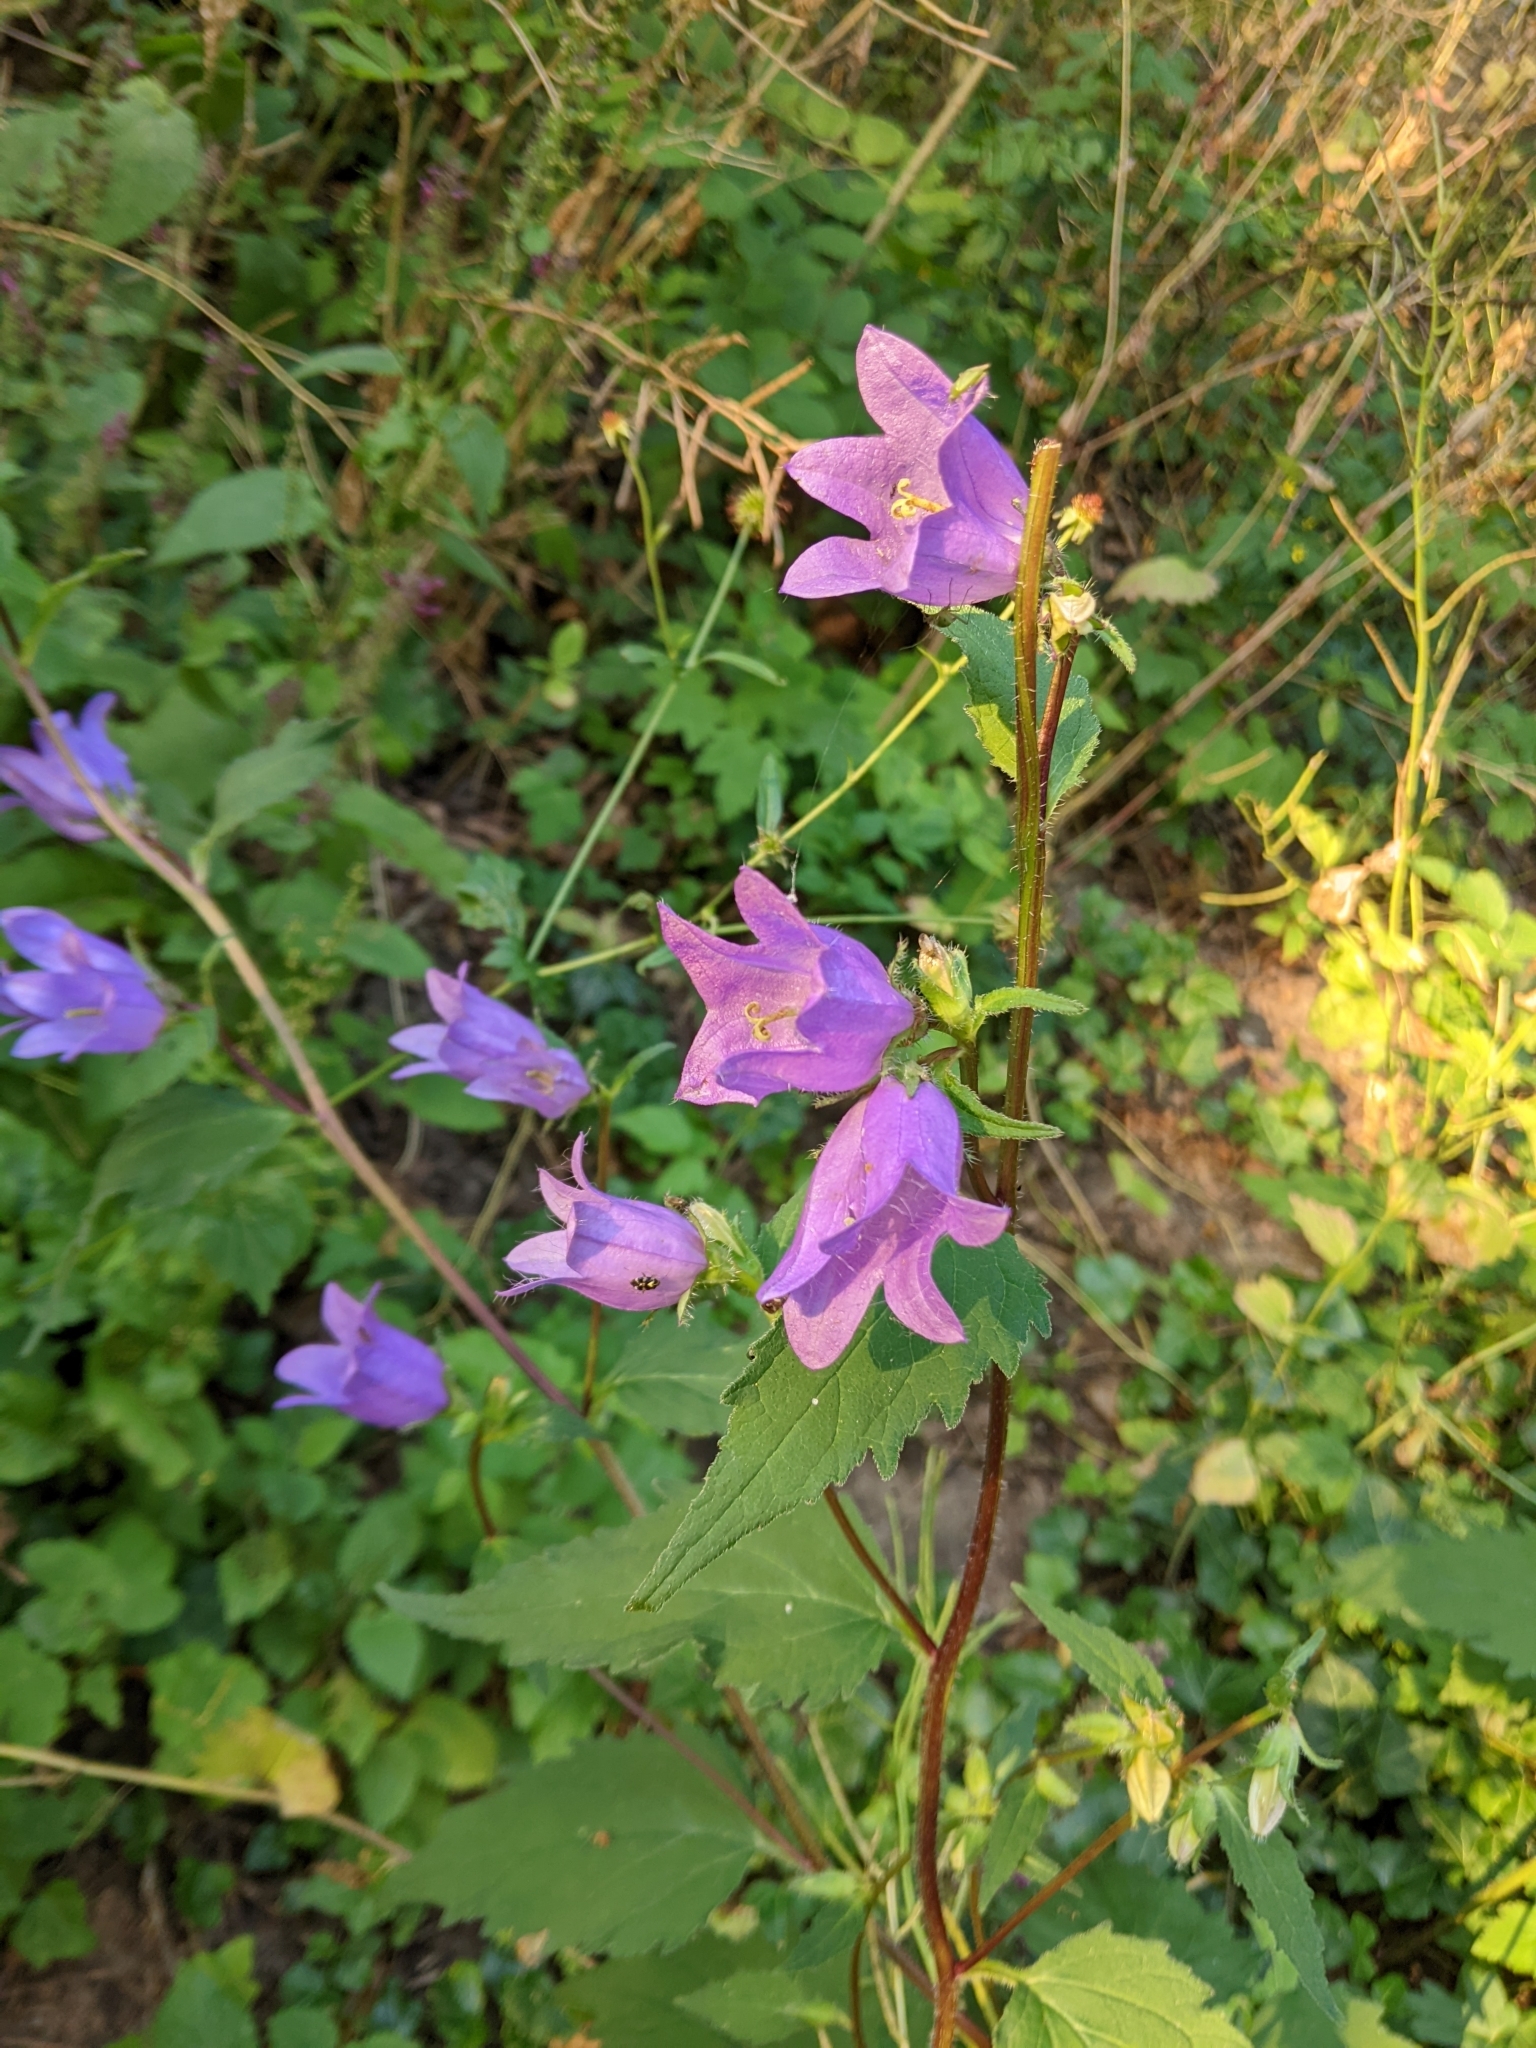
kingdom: Plantae
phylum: Tracheophyta
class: Magnoliopsida
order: Asterales
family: Campanulaceae
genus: Campanula
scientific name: Campanula trachelium
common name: Nettle-leaved bellflower
